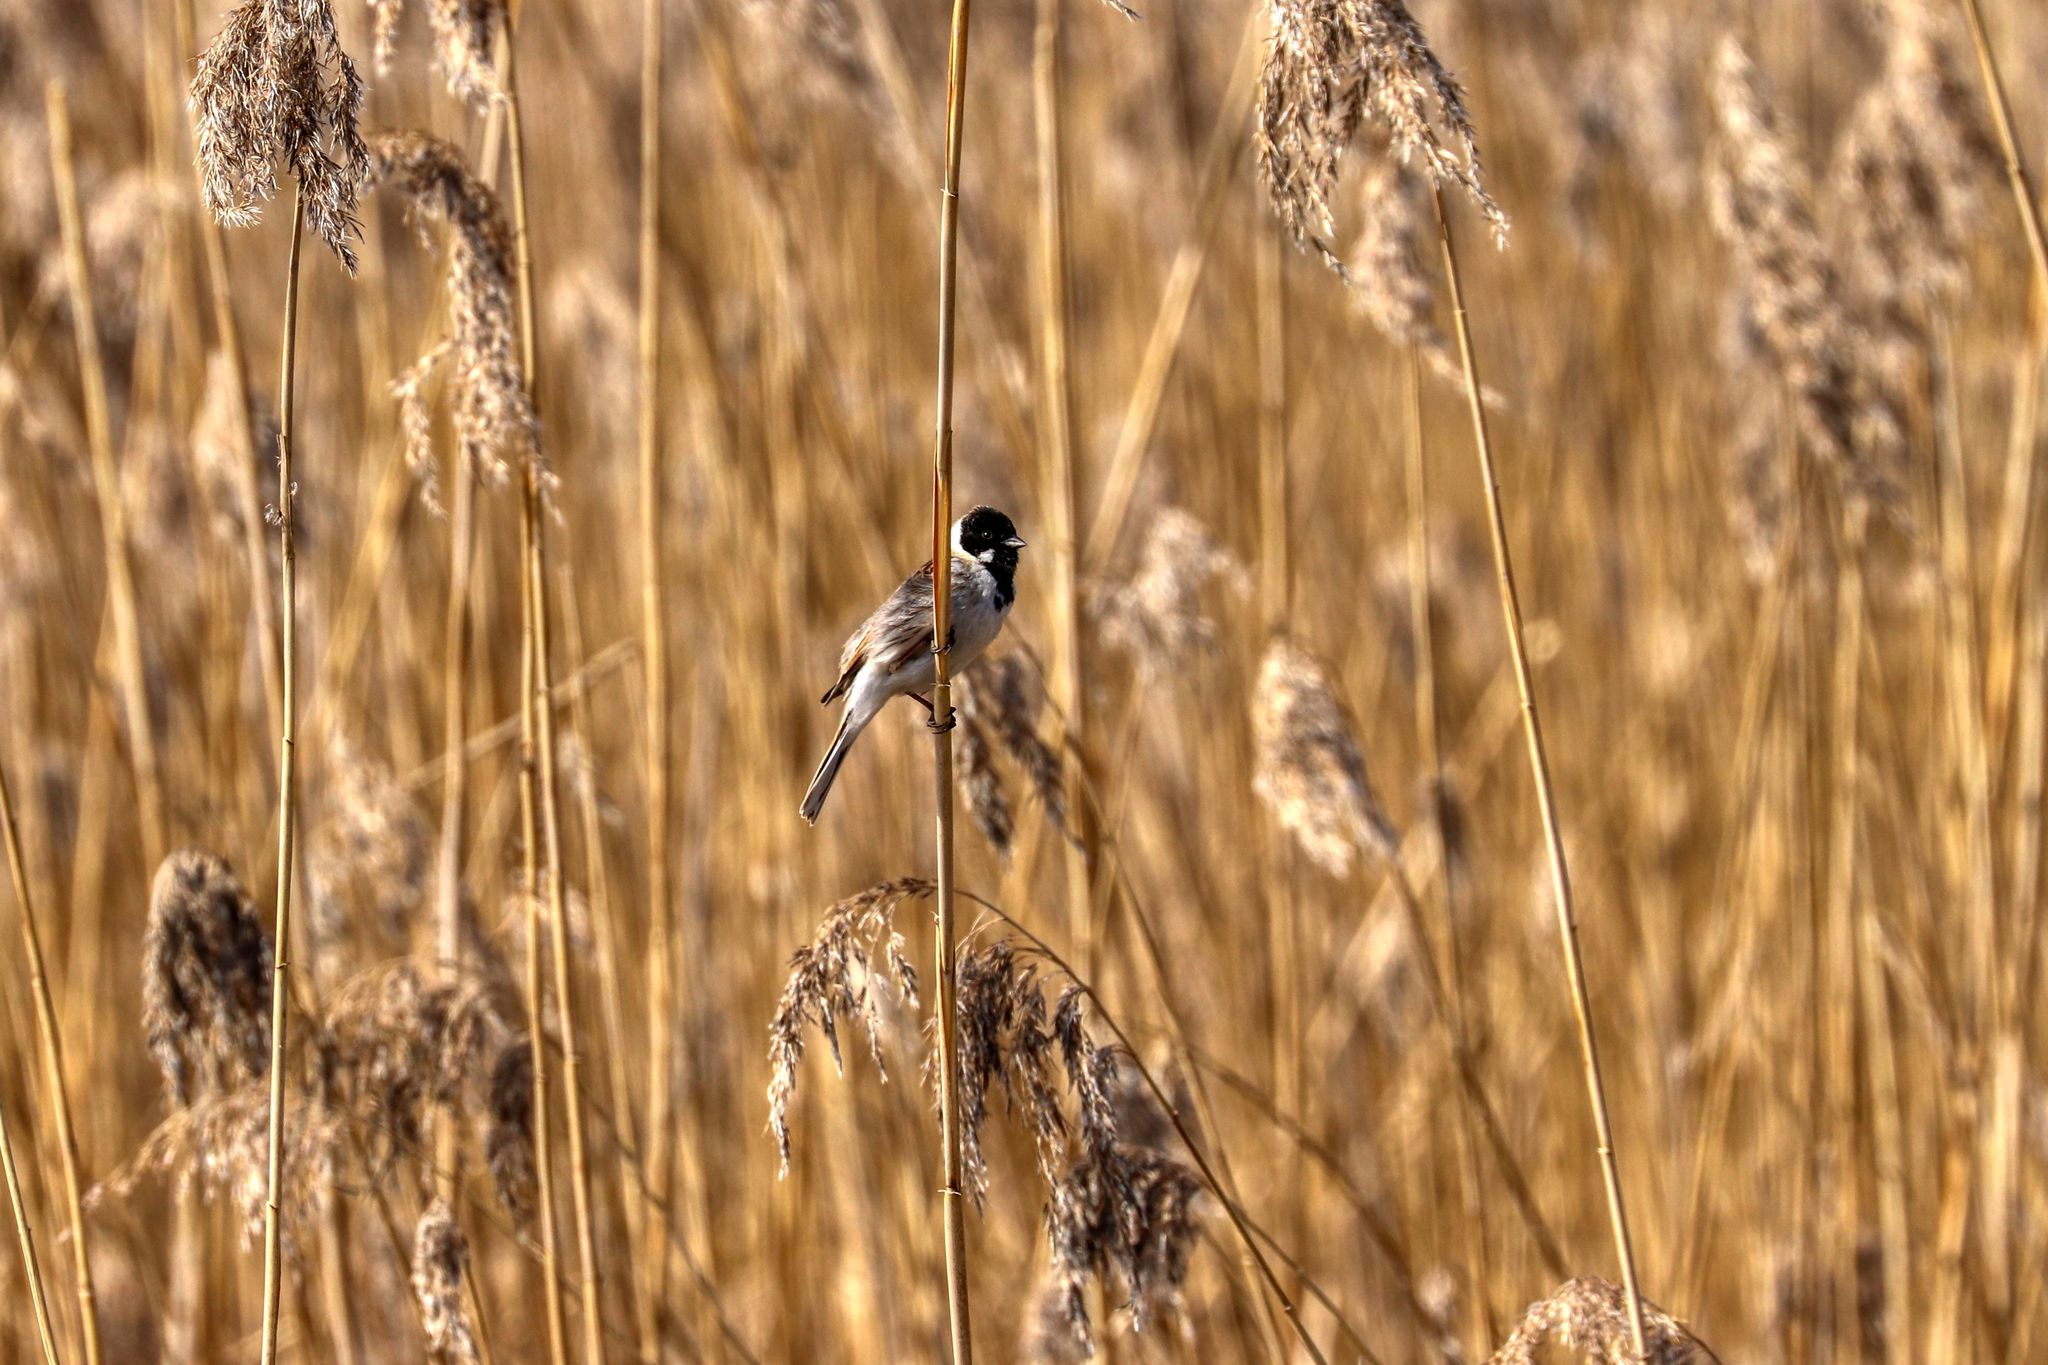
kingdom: Animalia
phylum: Chordata
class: Aves
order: Passeriformes
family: Emberizidae
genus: Emberiza
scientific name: Emberiza schoeniclus
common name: Reed bunting
